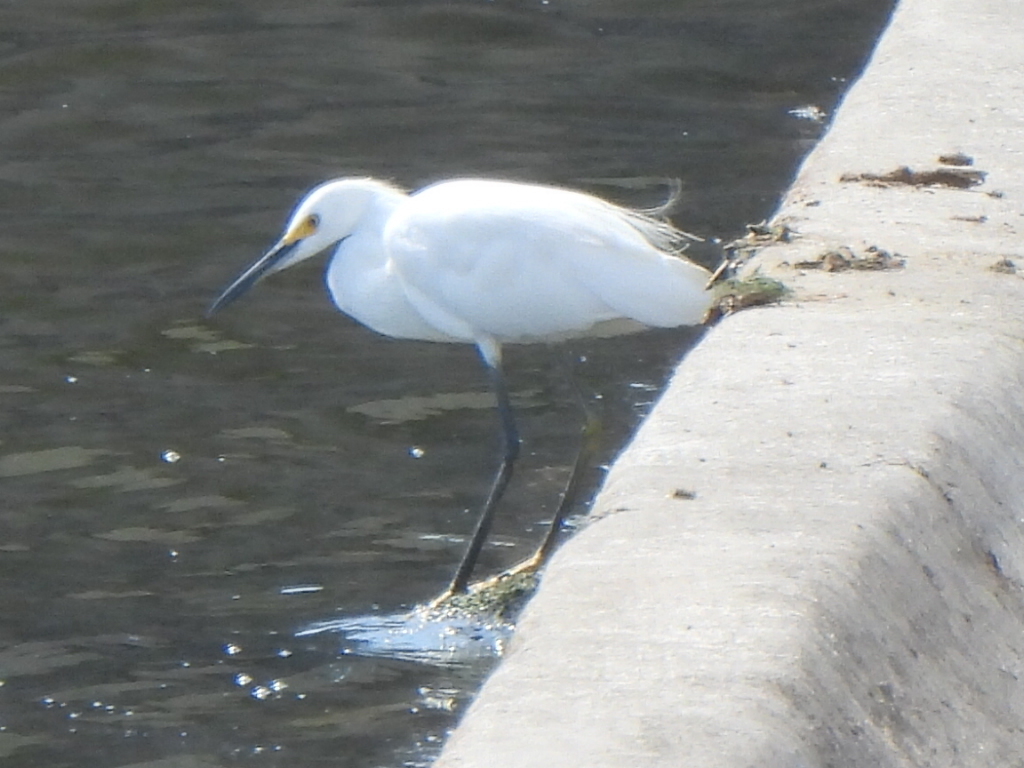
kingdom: Animalia
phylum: Chordata
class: Aves
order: Pelecaniformes
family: Ardeidae
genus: Egretta
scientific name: Egretta thula
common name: Snowy egret
